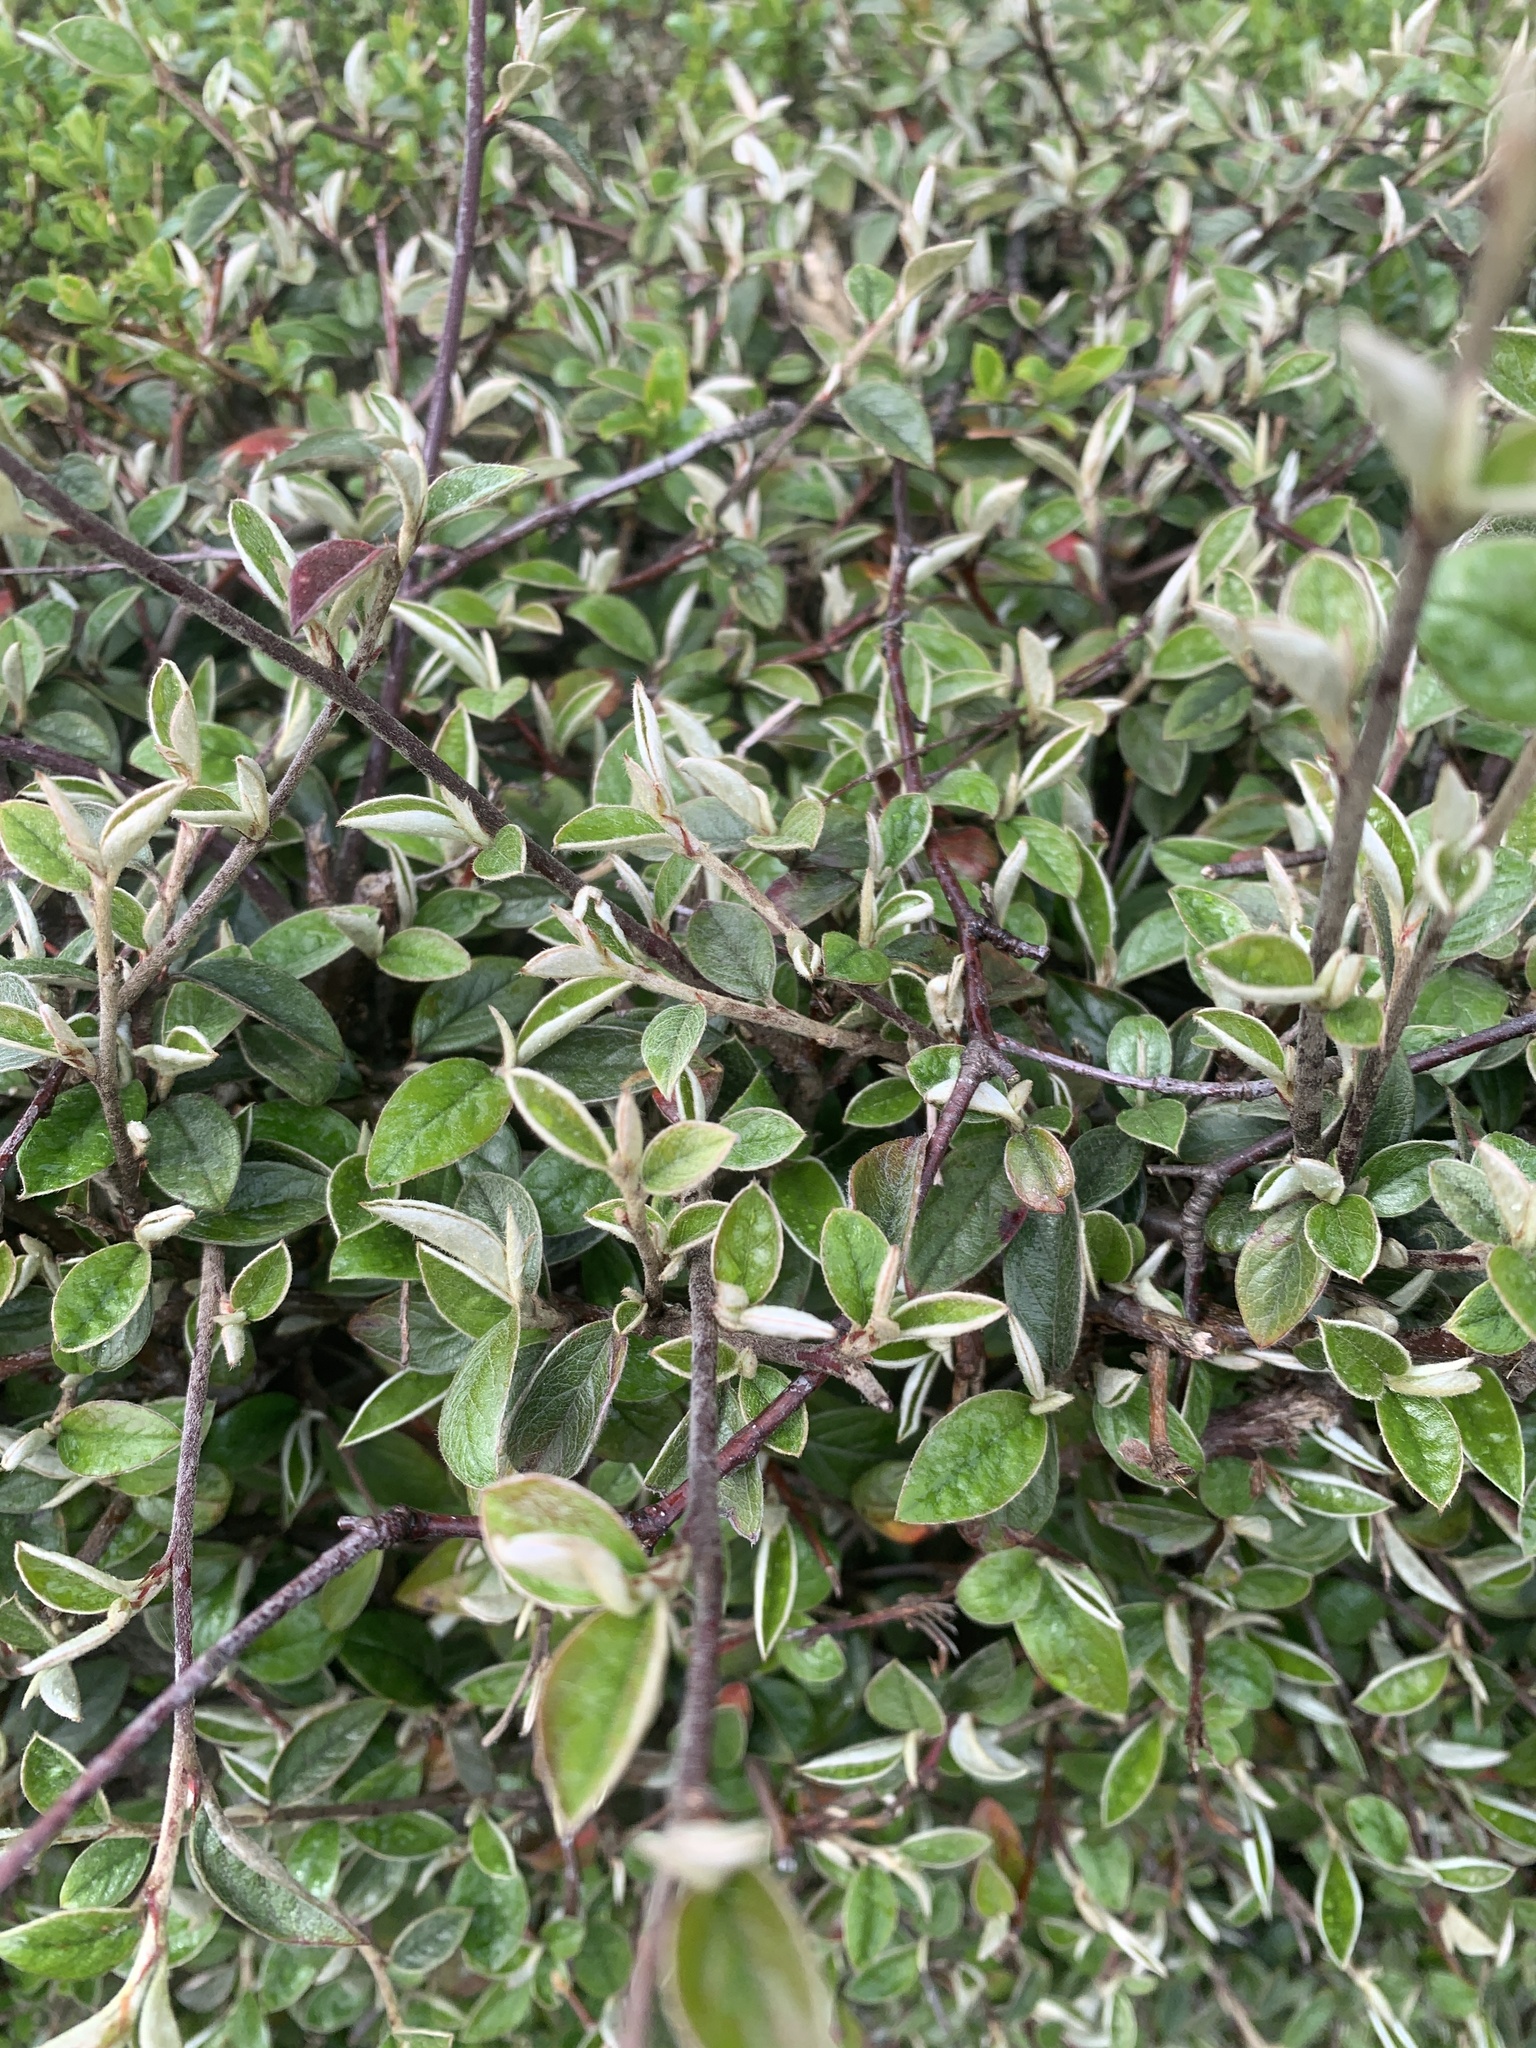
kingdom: Plantae
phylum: Tracheophyta
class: Magnoliopsida
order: Rosales
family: Rosaceae
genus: Cotoneaster
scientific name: Cotoneaster horizontalis
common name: Wall cotoneaster
